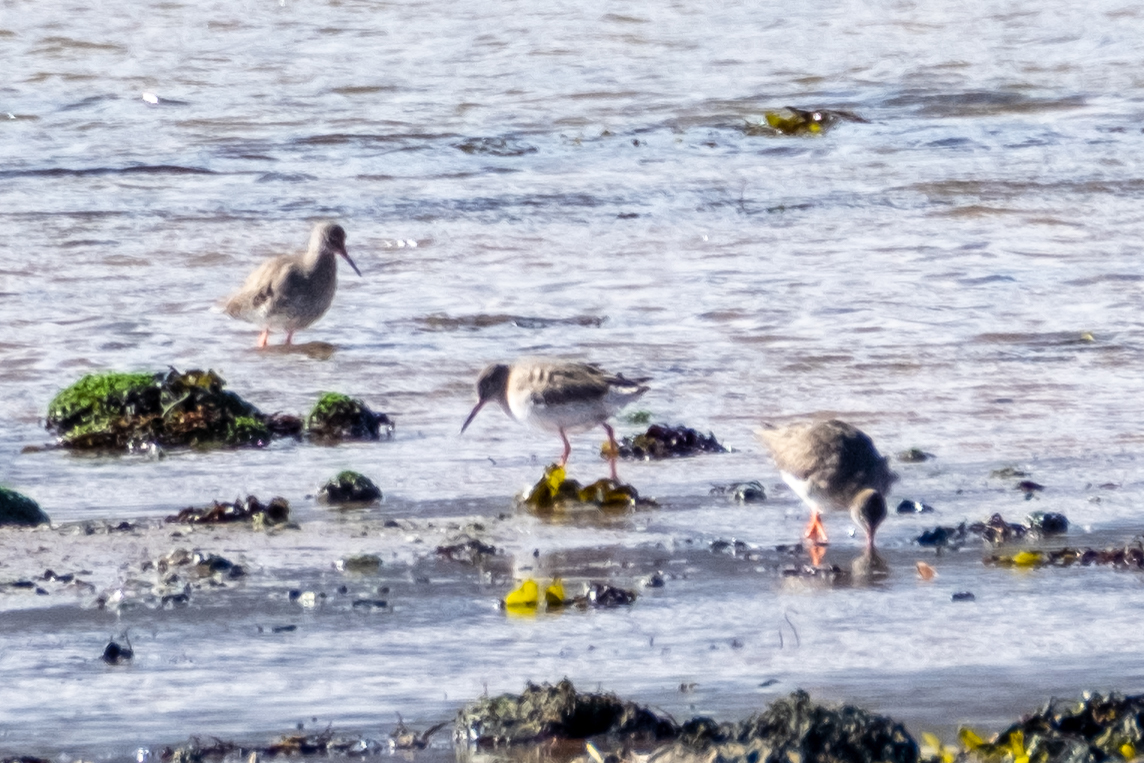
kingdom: Animalia
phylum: Chordata
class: Aves
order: Charadriiformes
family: Scolopacidae
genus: Tringa
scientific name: Tringa totanus
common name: Common redshank
